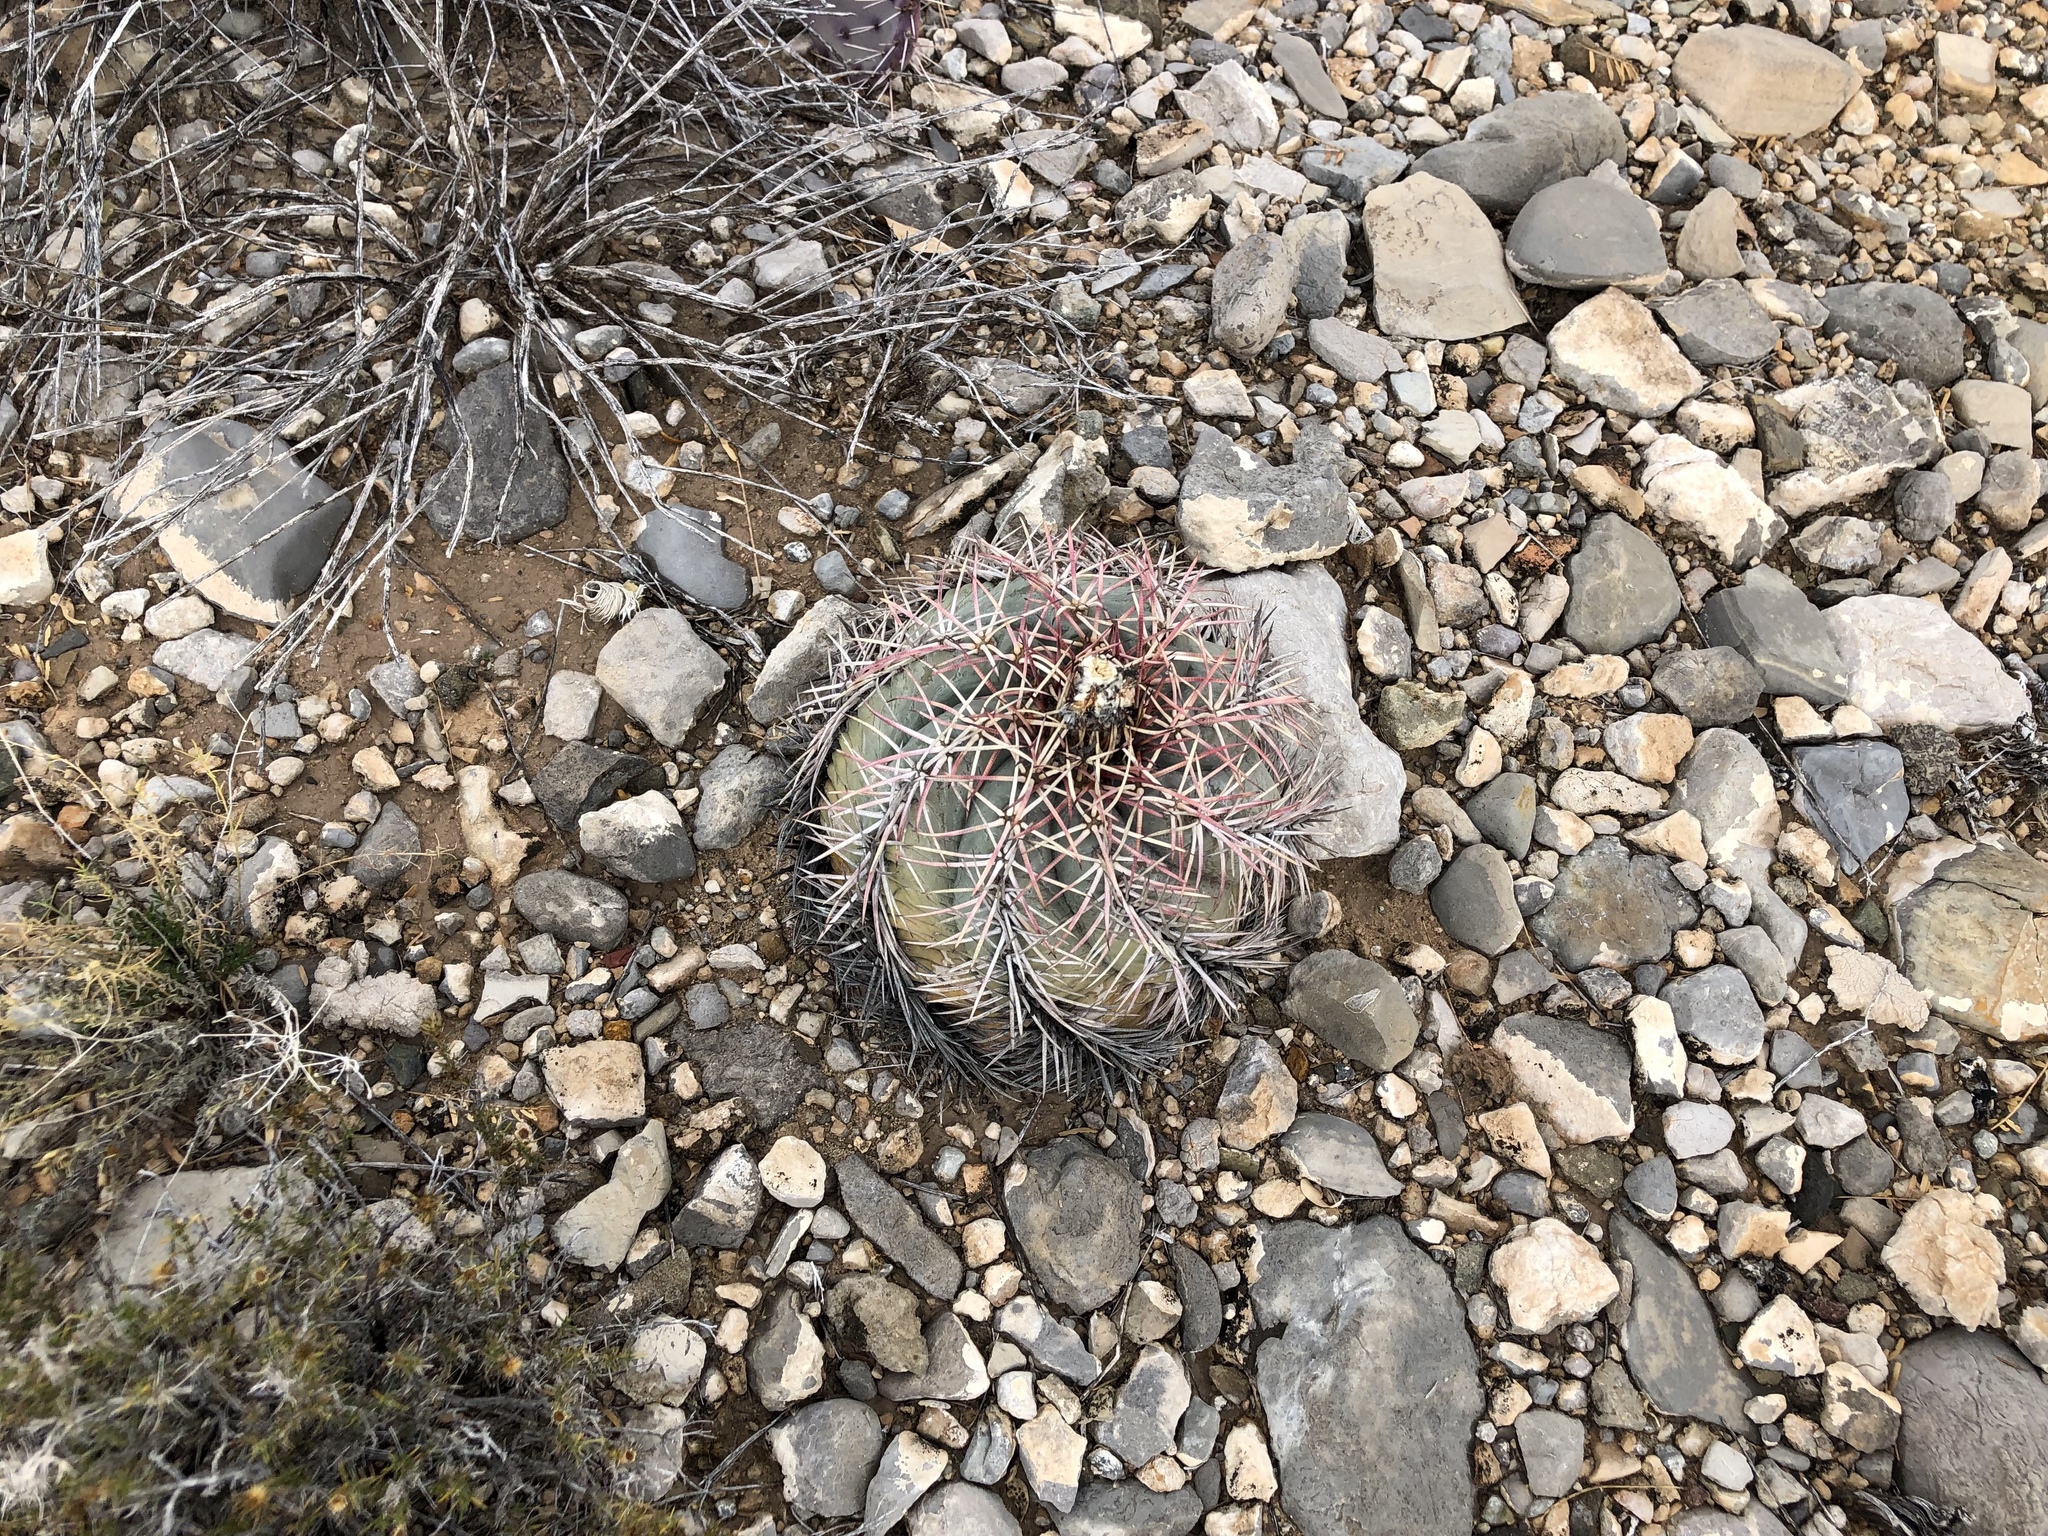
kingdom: Plantae
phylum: Tracheophyta
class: Magnoliopsida
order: Caryophyllales
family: Cactaceae
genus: Echinocactus
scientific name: Echinocactus horizonthalonius
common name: Devilshead
